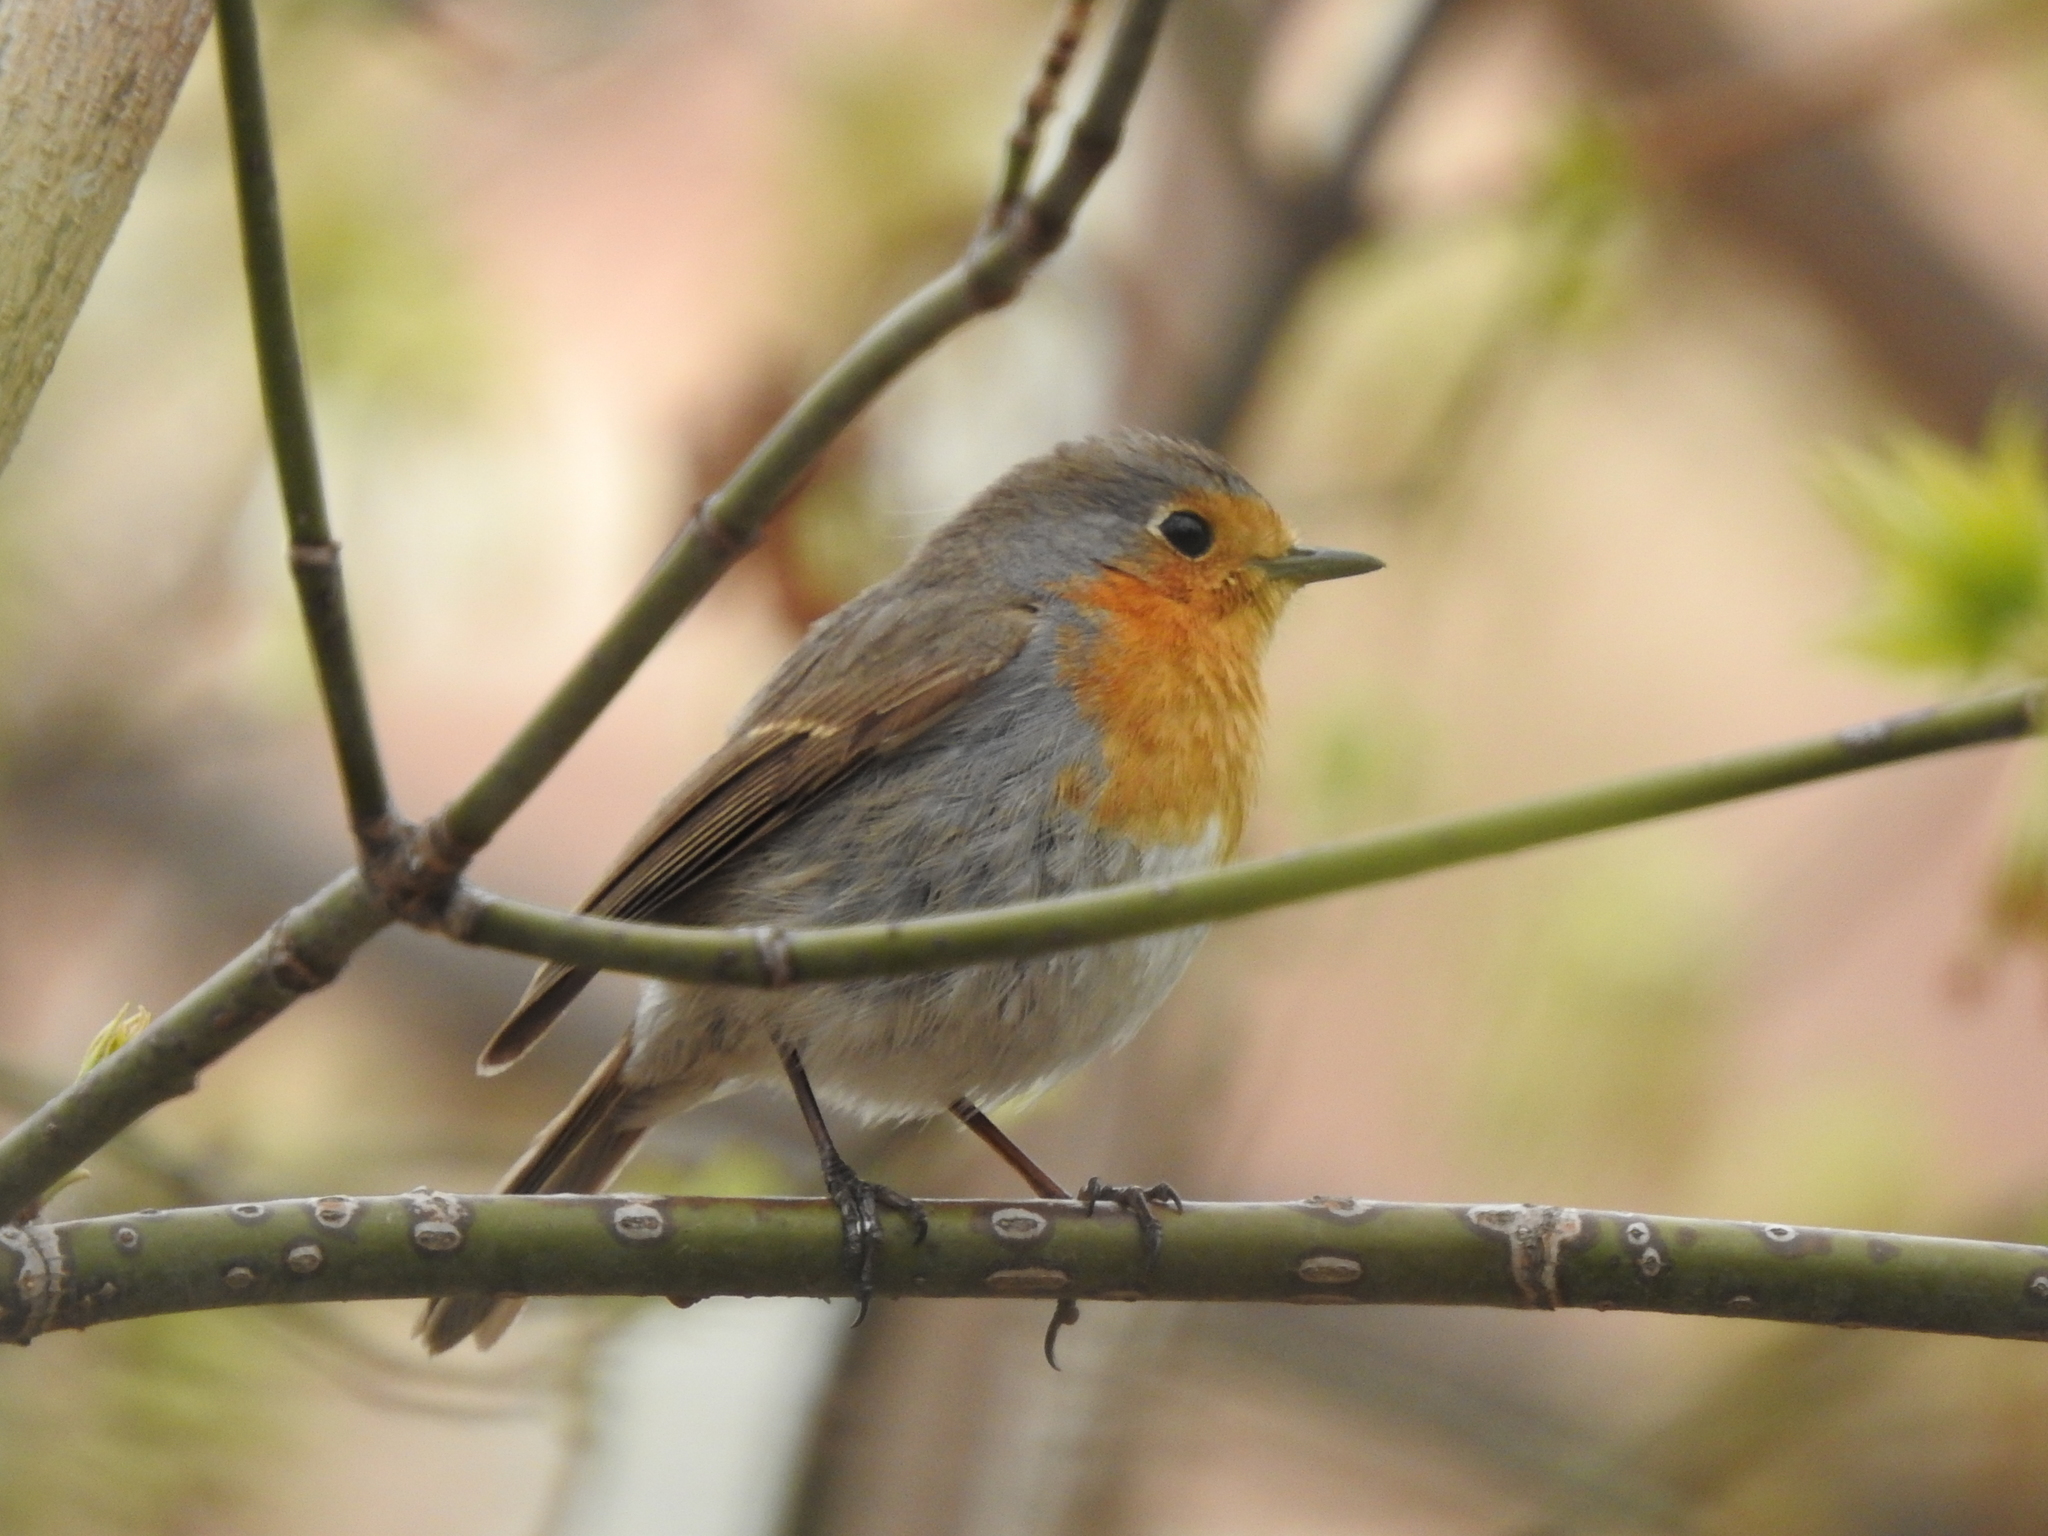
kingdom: Animalia
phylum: Chordata
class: Aves
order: Passeriformes
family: Muscicapidae
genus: Erithacus
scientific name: Erithacus rubecula
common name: European robin
